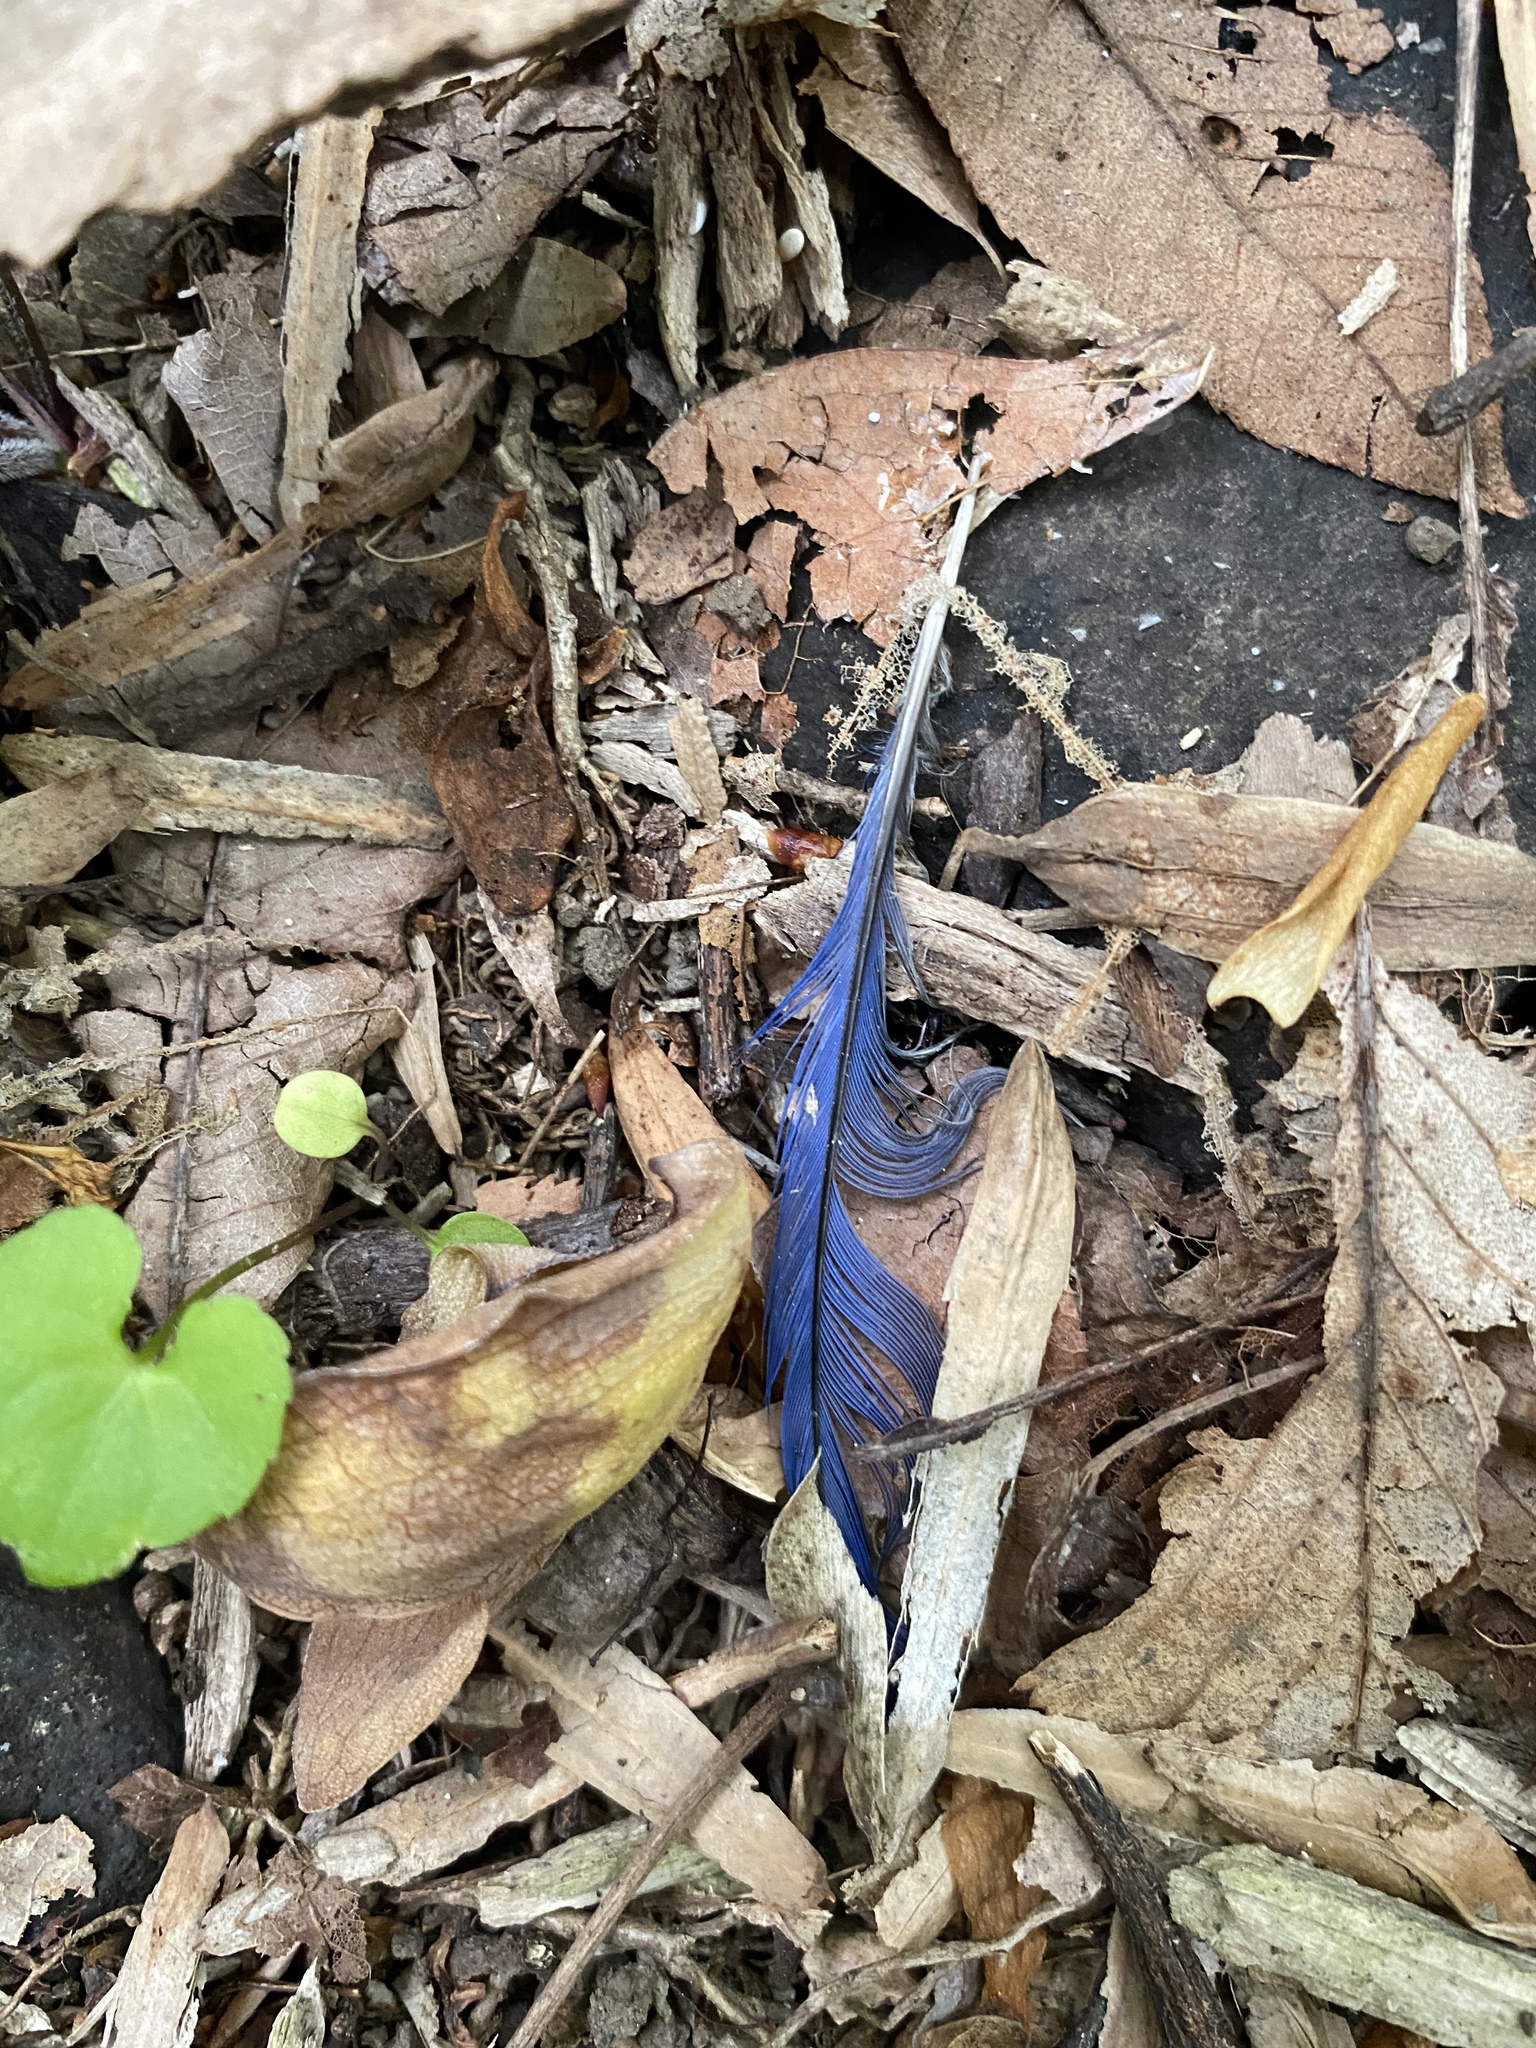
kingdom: Animalia
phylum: Chordata
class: Aves
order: Passeriformes
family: Turdidae
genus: Sialia
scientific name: Sialia sialis
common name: Eastern bluebird
